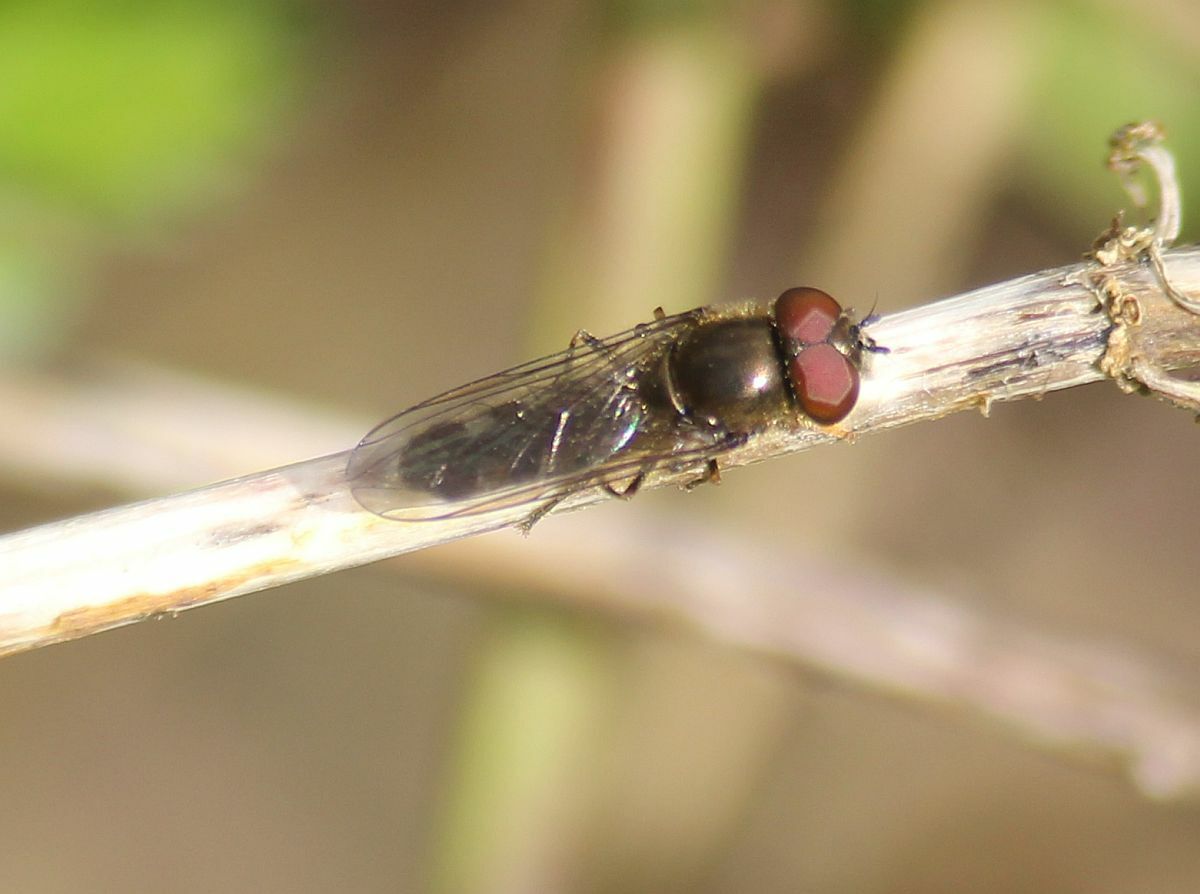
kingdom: Animalia
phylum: Arthropoda
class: Insecta
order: Diptera
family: Syrphidae
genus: Platycheirus
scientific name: Platycheirus albimanus
